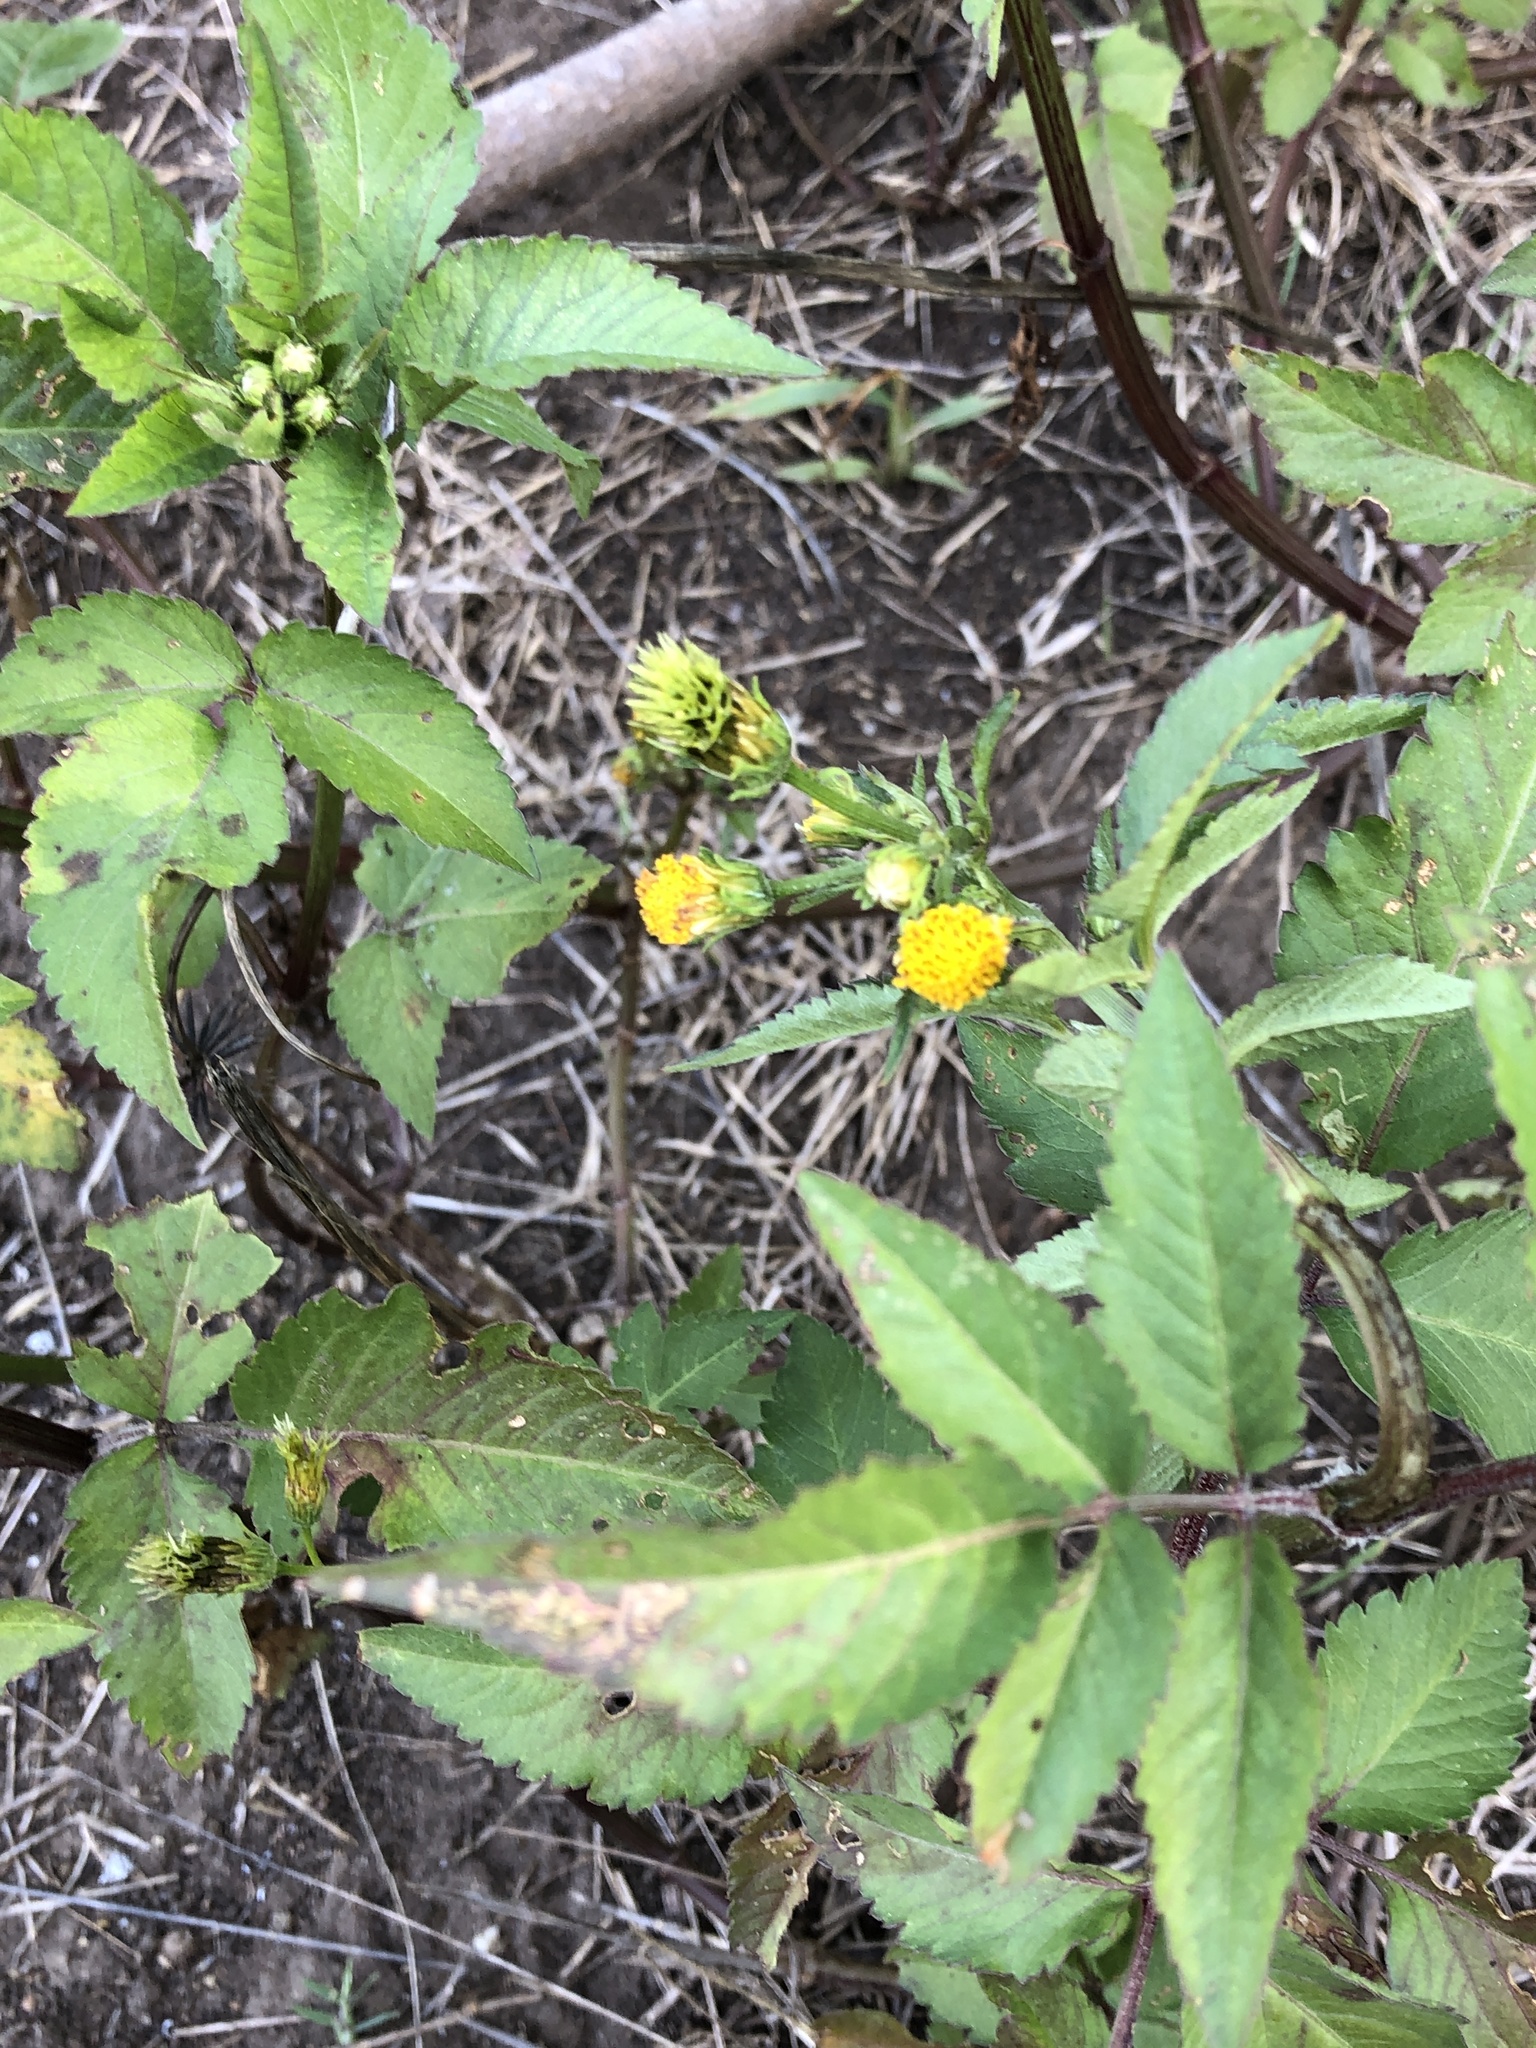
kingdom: Plantae
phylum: Tracheophyta
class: Magnoliopsida
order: Asterales
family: Asteraceae
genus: Bidens
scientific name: Bidens pilosa
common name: Black-jack
